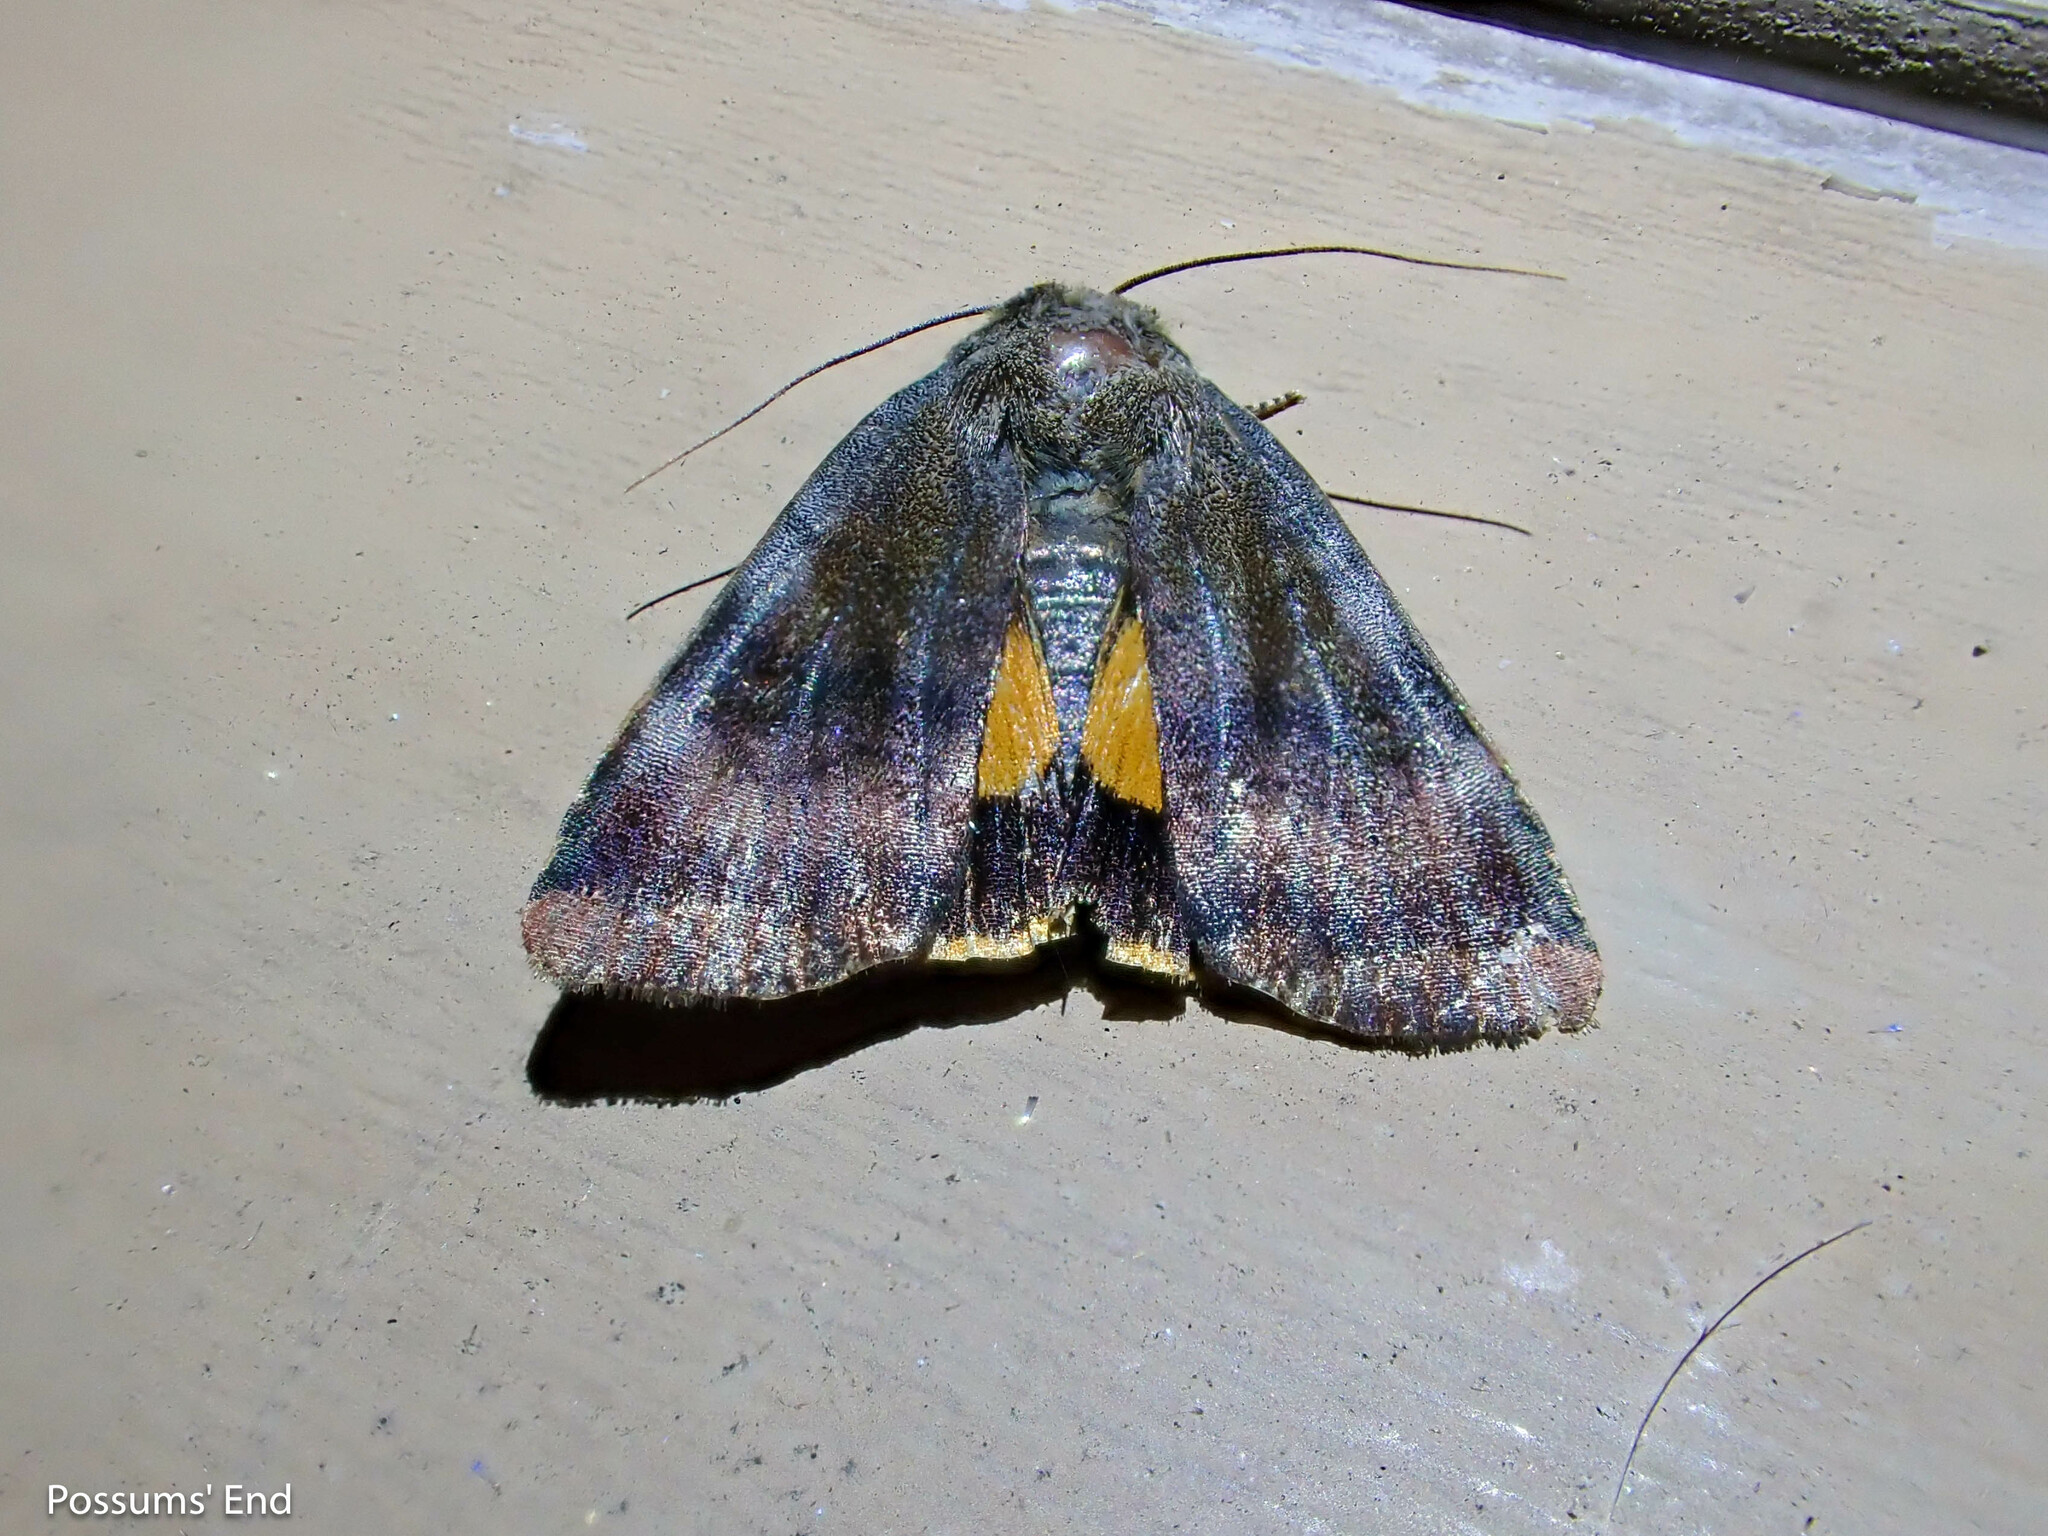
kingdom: Animalia
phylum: Arthropoda
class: Insecta
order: Lepidoptera
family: Noctuidae
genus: Noctua
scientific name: Noctua
